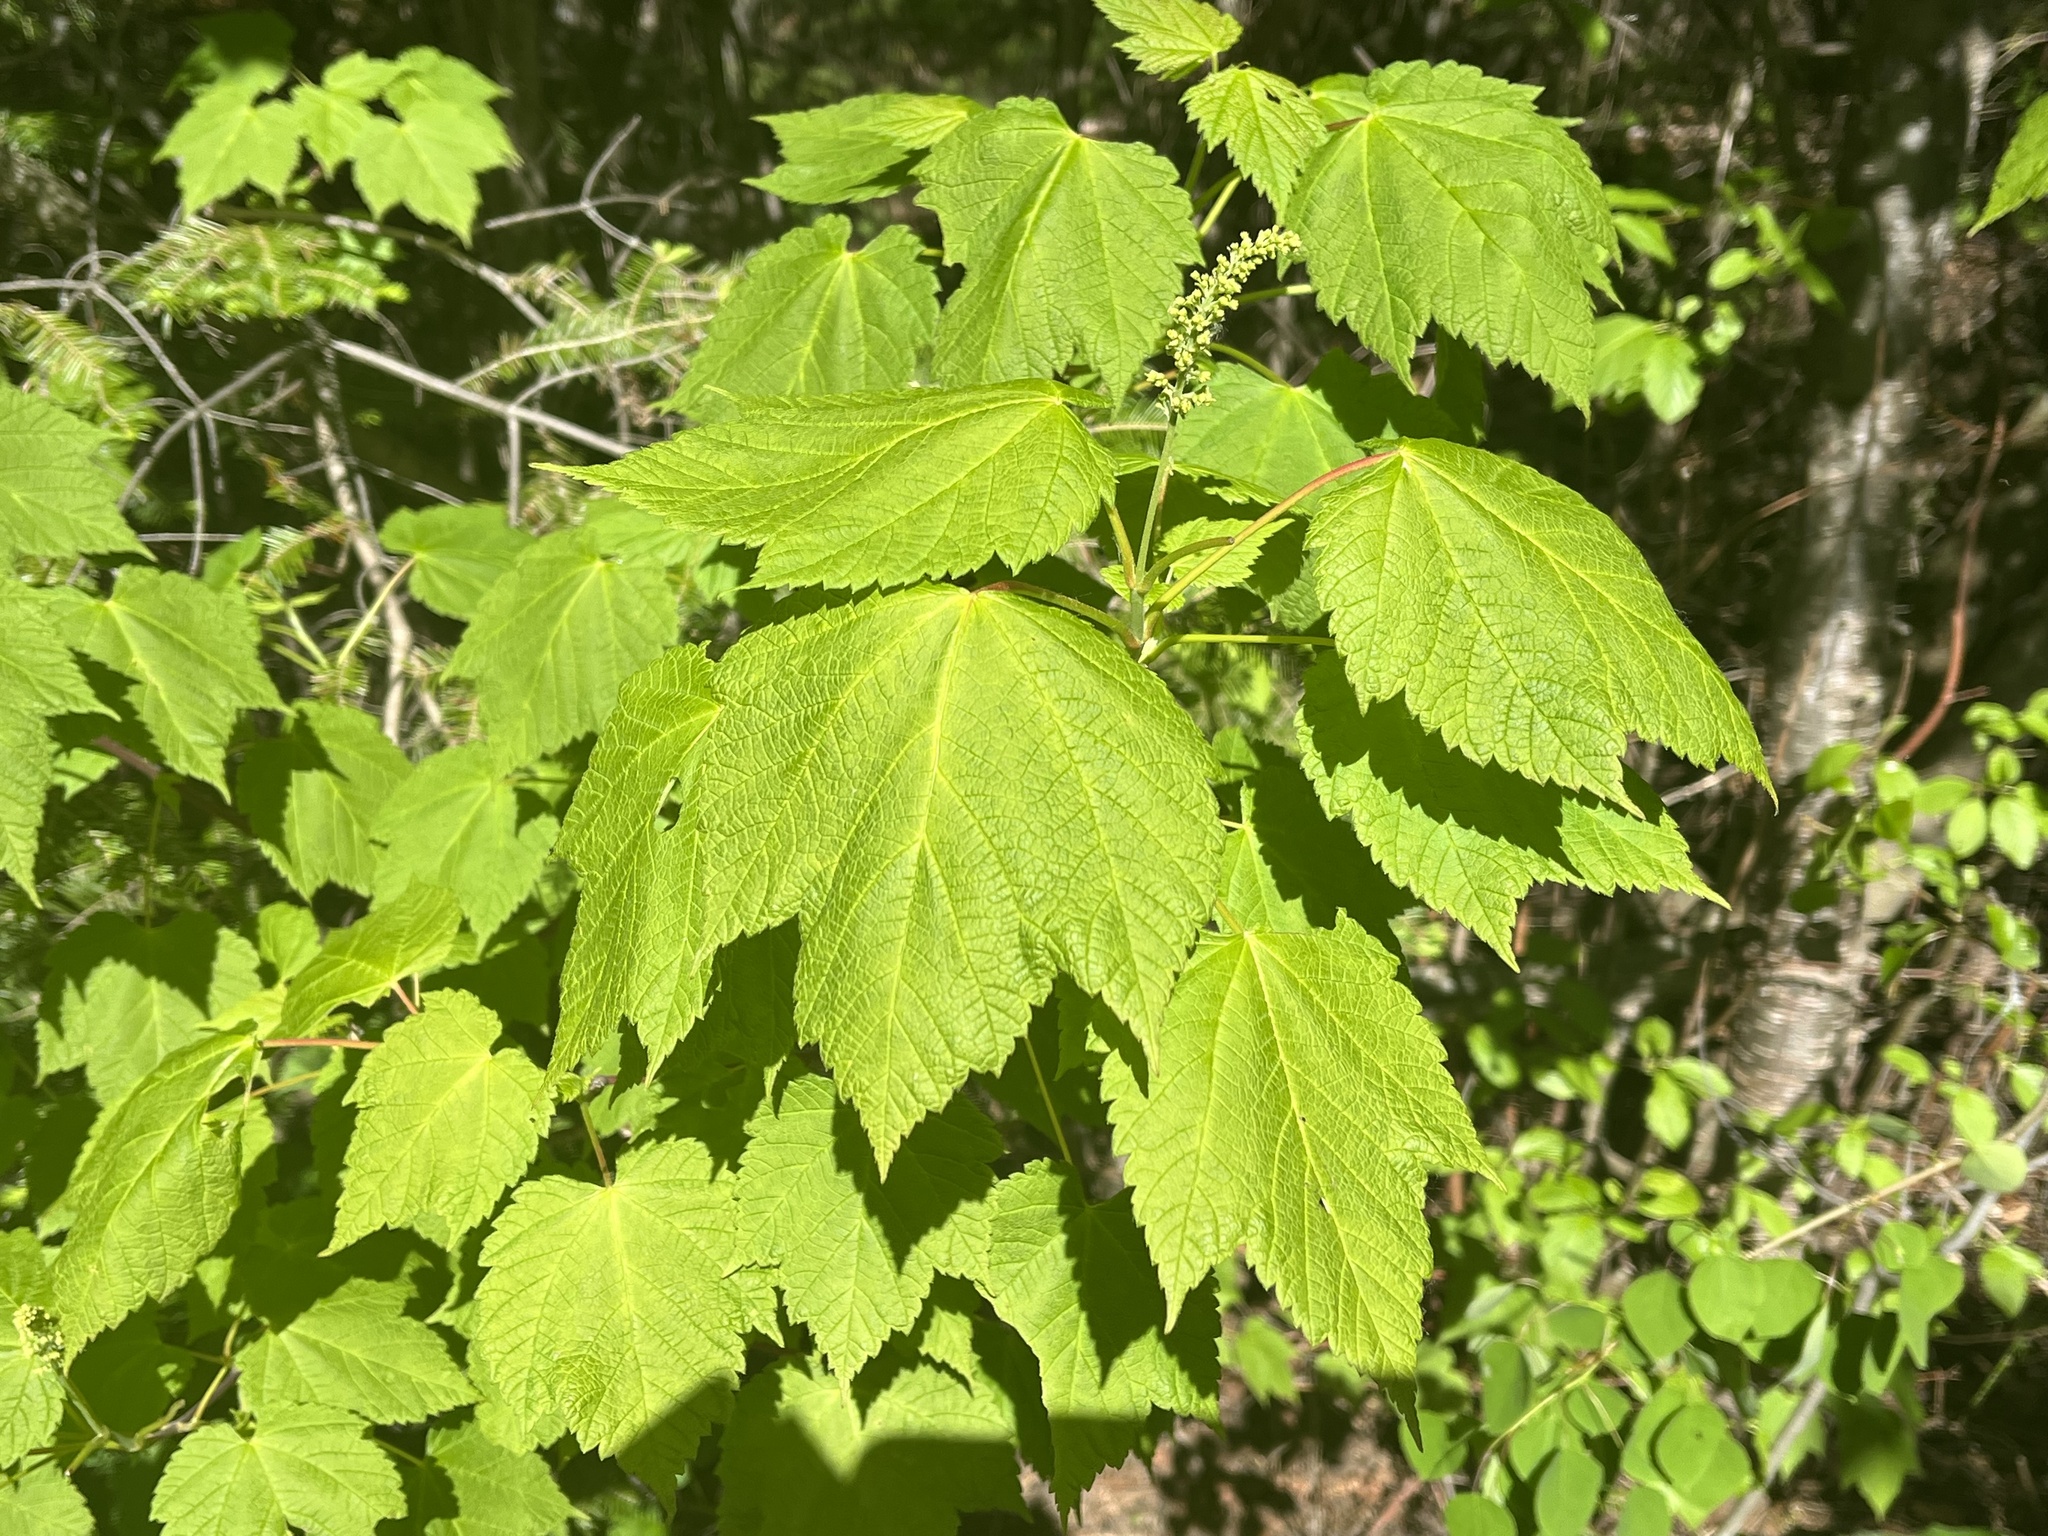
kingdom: Plantae
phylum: Tracheophyta
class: Magnoliopsida
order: Sapindales
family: Sapindaceae
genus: Acer
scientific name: Acer spicatum
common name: Mountain maple
